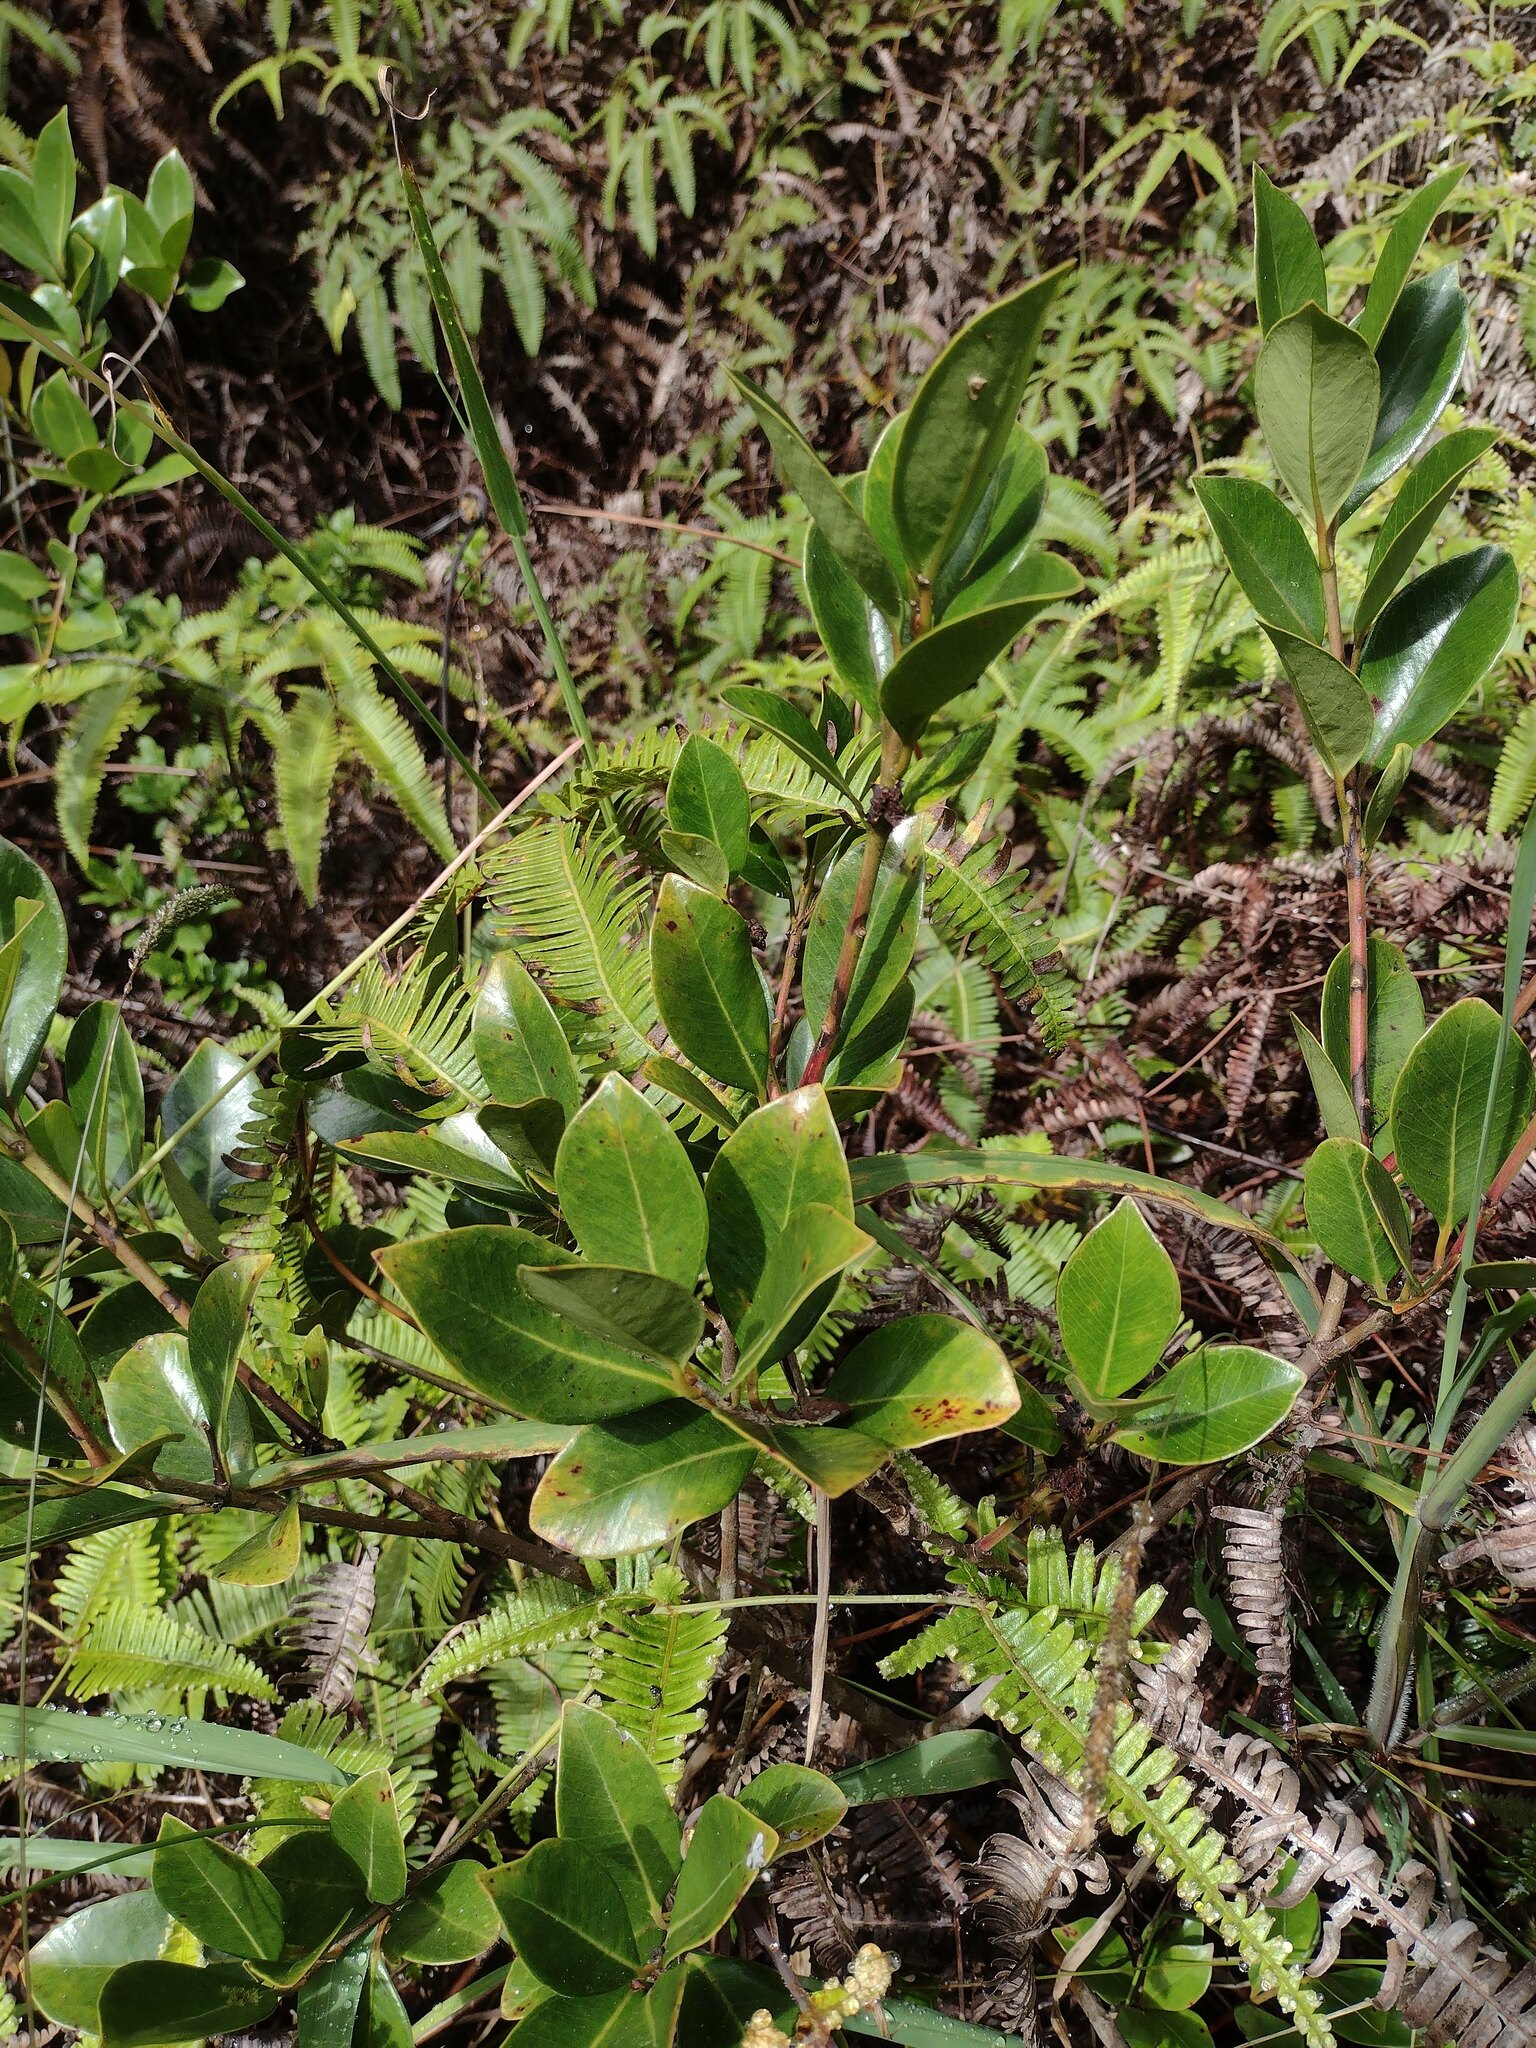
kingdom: Plantae
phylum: Tracheophyta
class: Magnoliopsida
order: Myrtales
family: Myrtaceae
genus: Psidium
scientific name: Psidium cattleianum
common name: Strawberry guava
